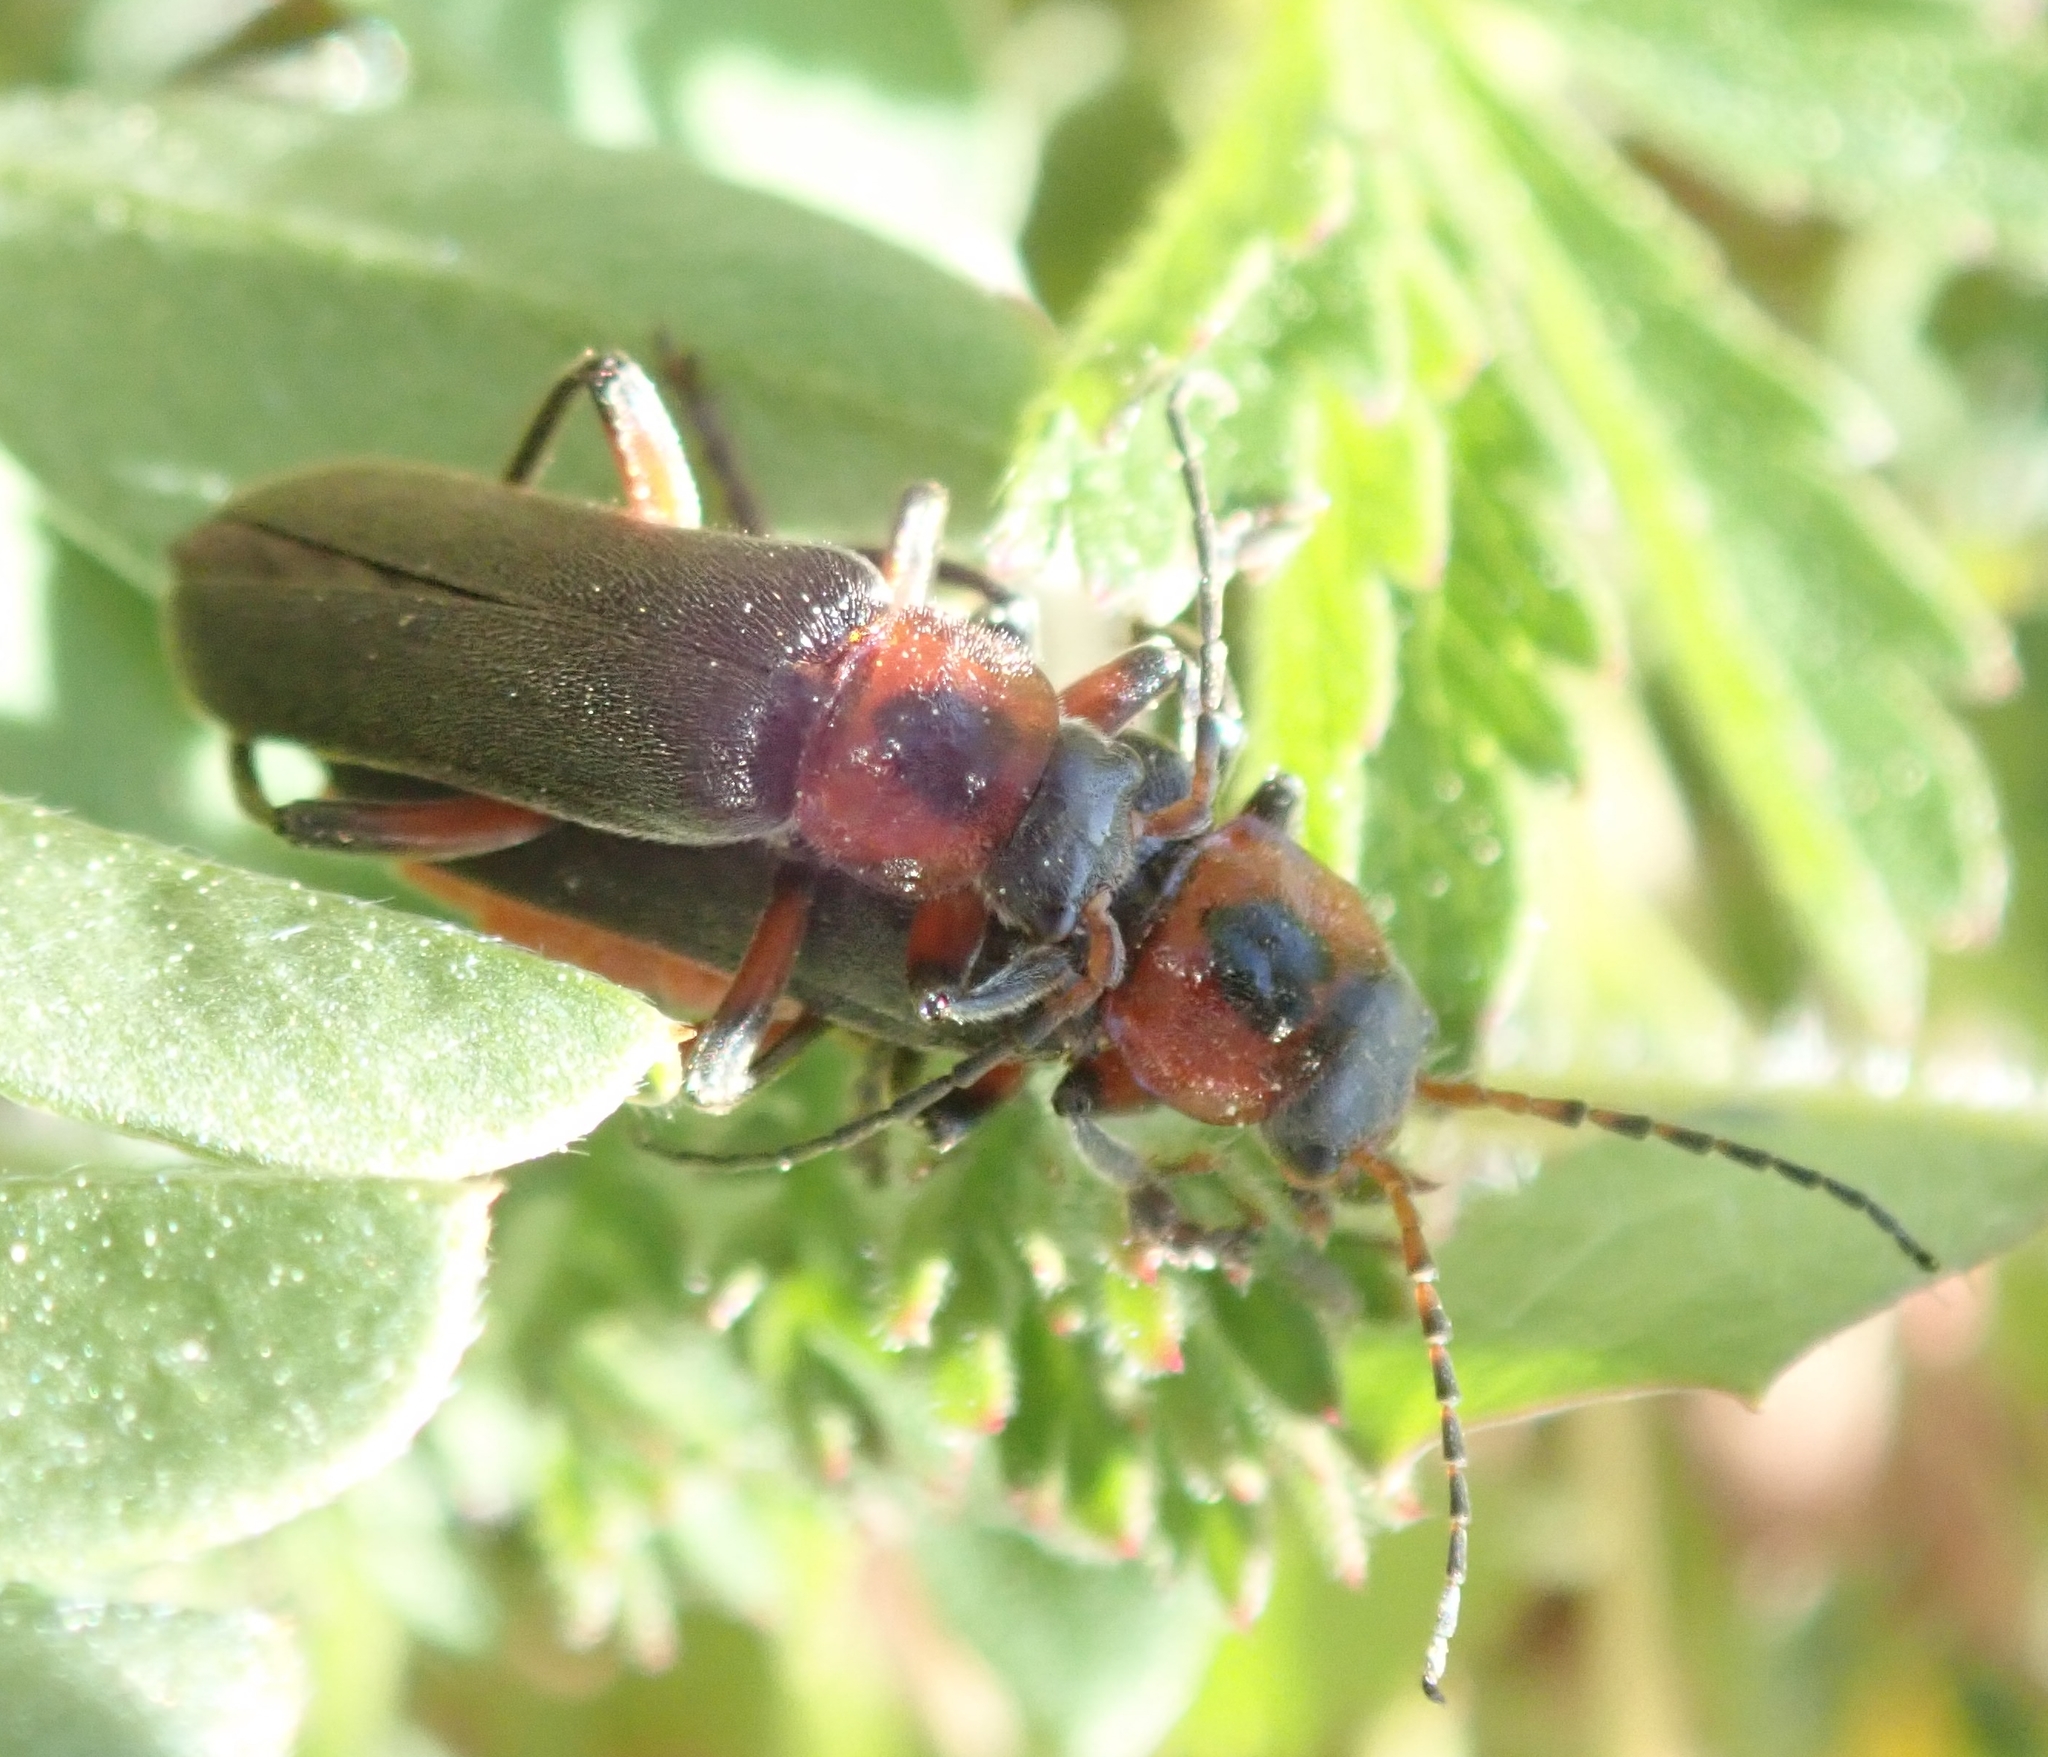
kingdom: Animalia
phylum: Arthropoda
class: Insecta
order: Coleoptera
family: Cantharidae
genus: Cantharis
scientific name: Cantharis rustica
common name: Soldier beetle
